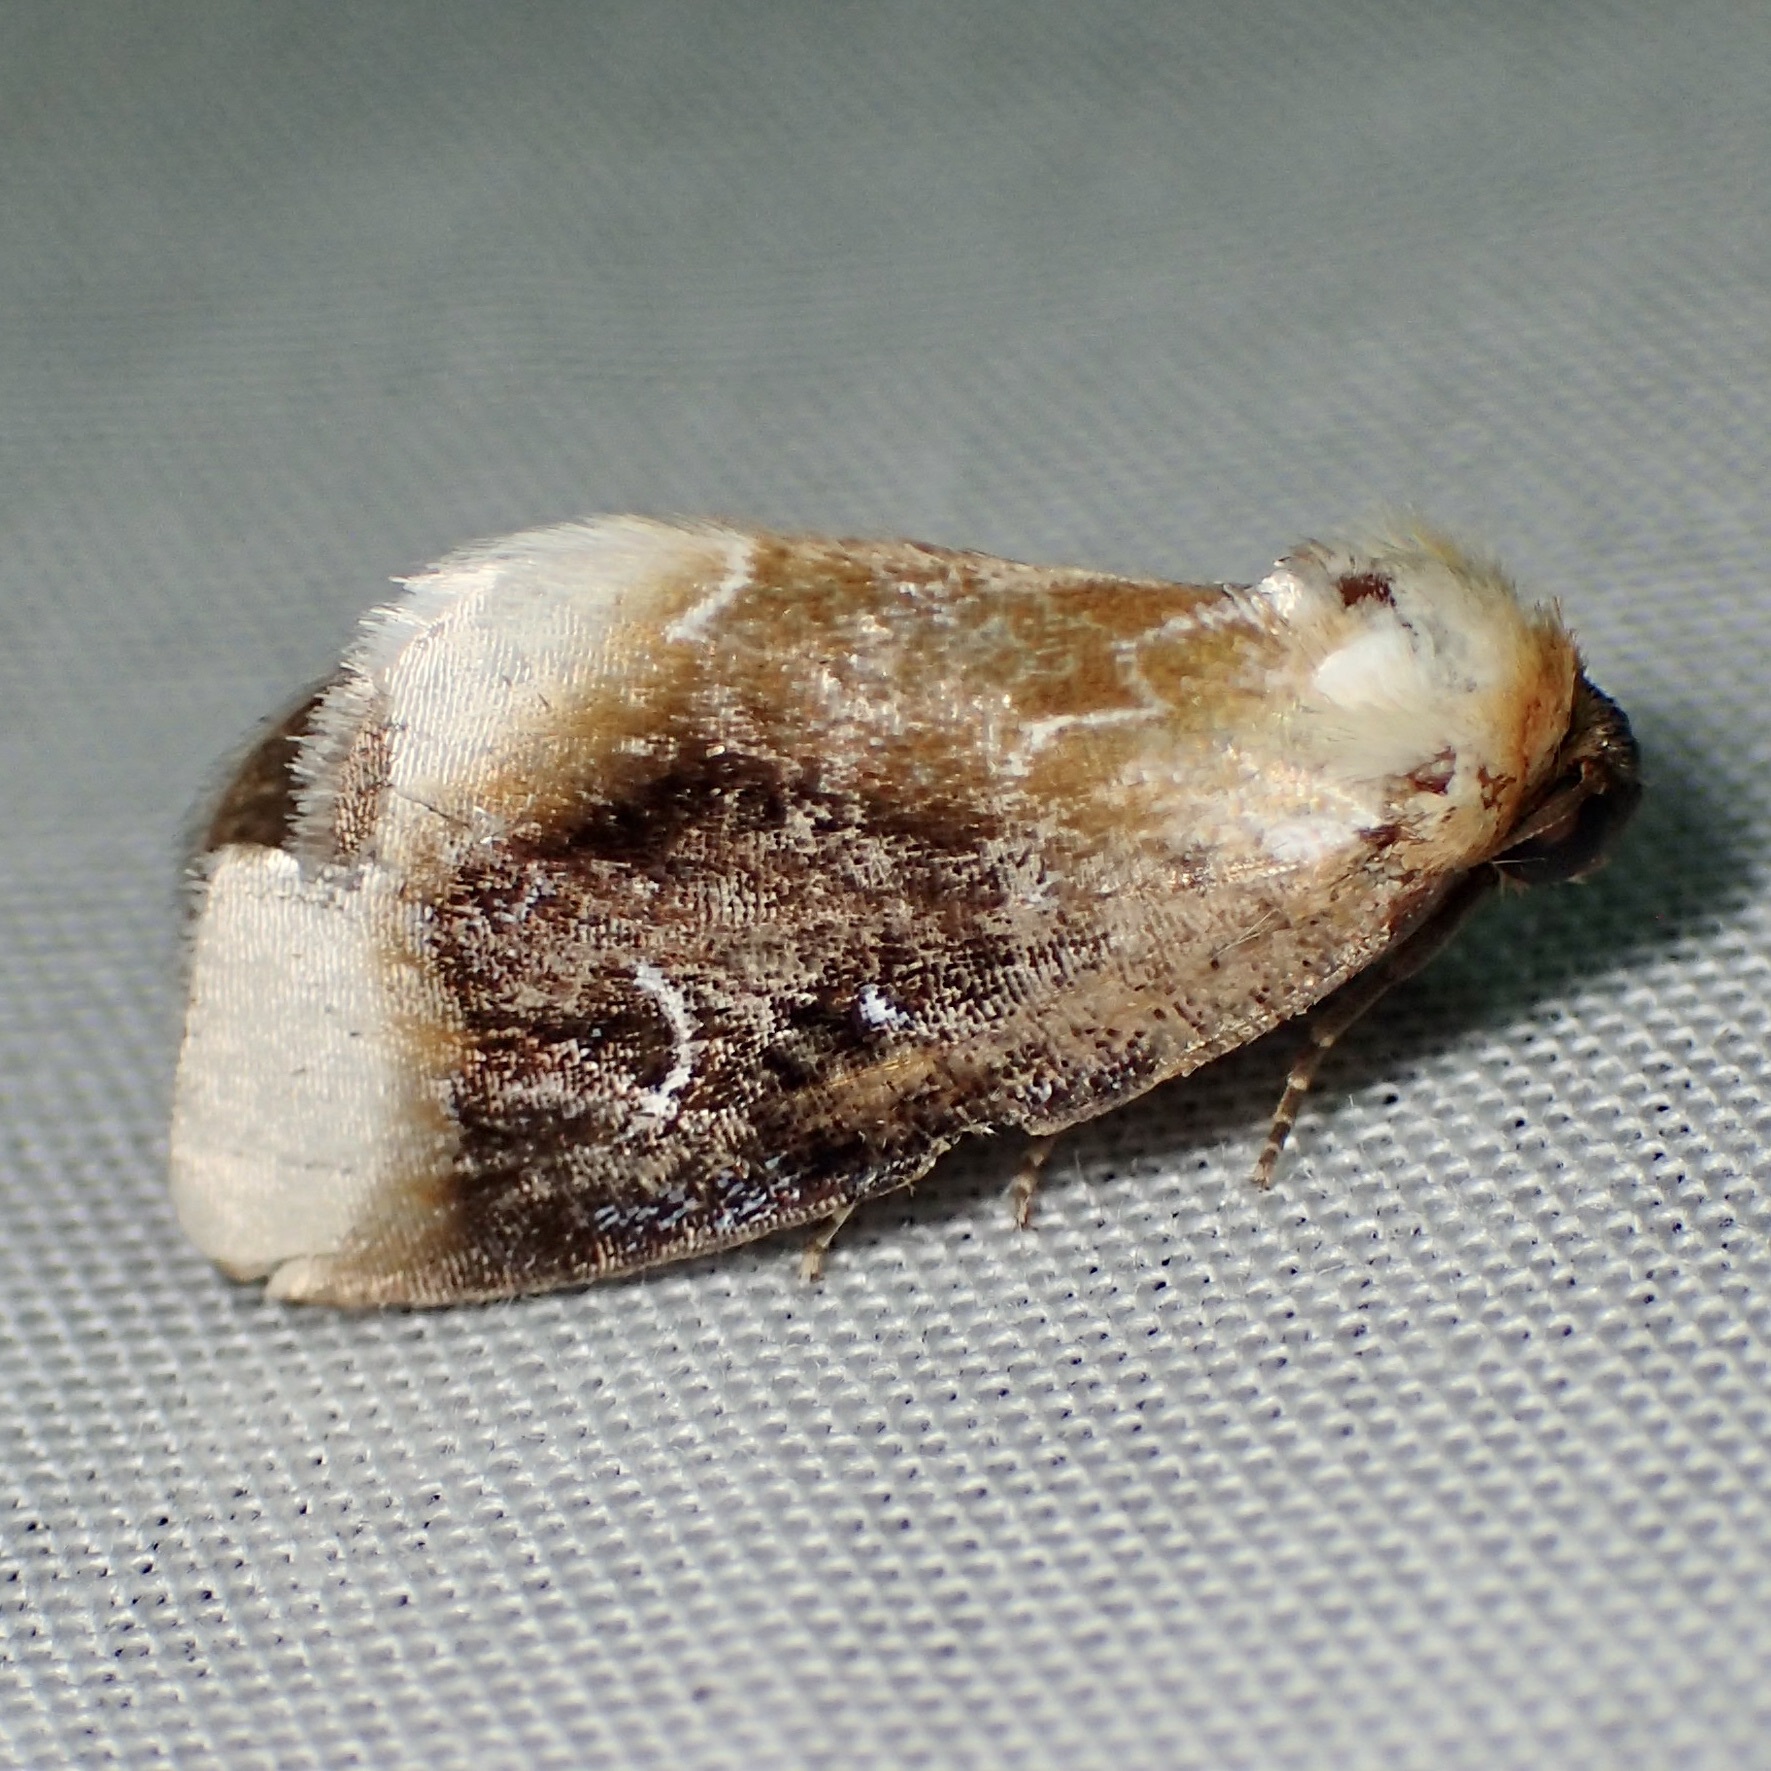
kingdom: Animalia
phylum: Arthropoda
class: Insecta
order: Lepidoptera
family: Noctuidae
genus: Chrysoecia
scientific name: Chrysoecia scira
